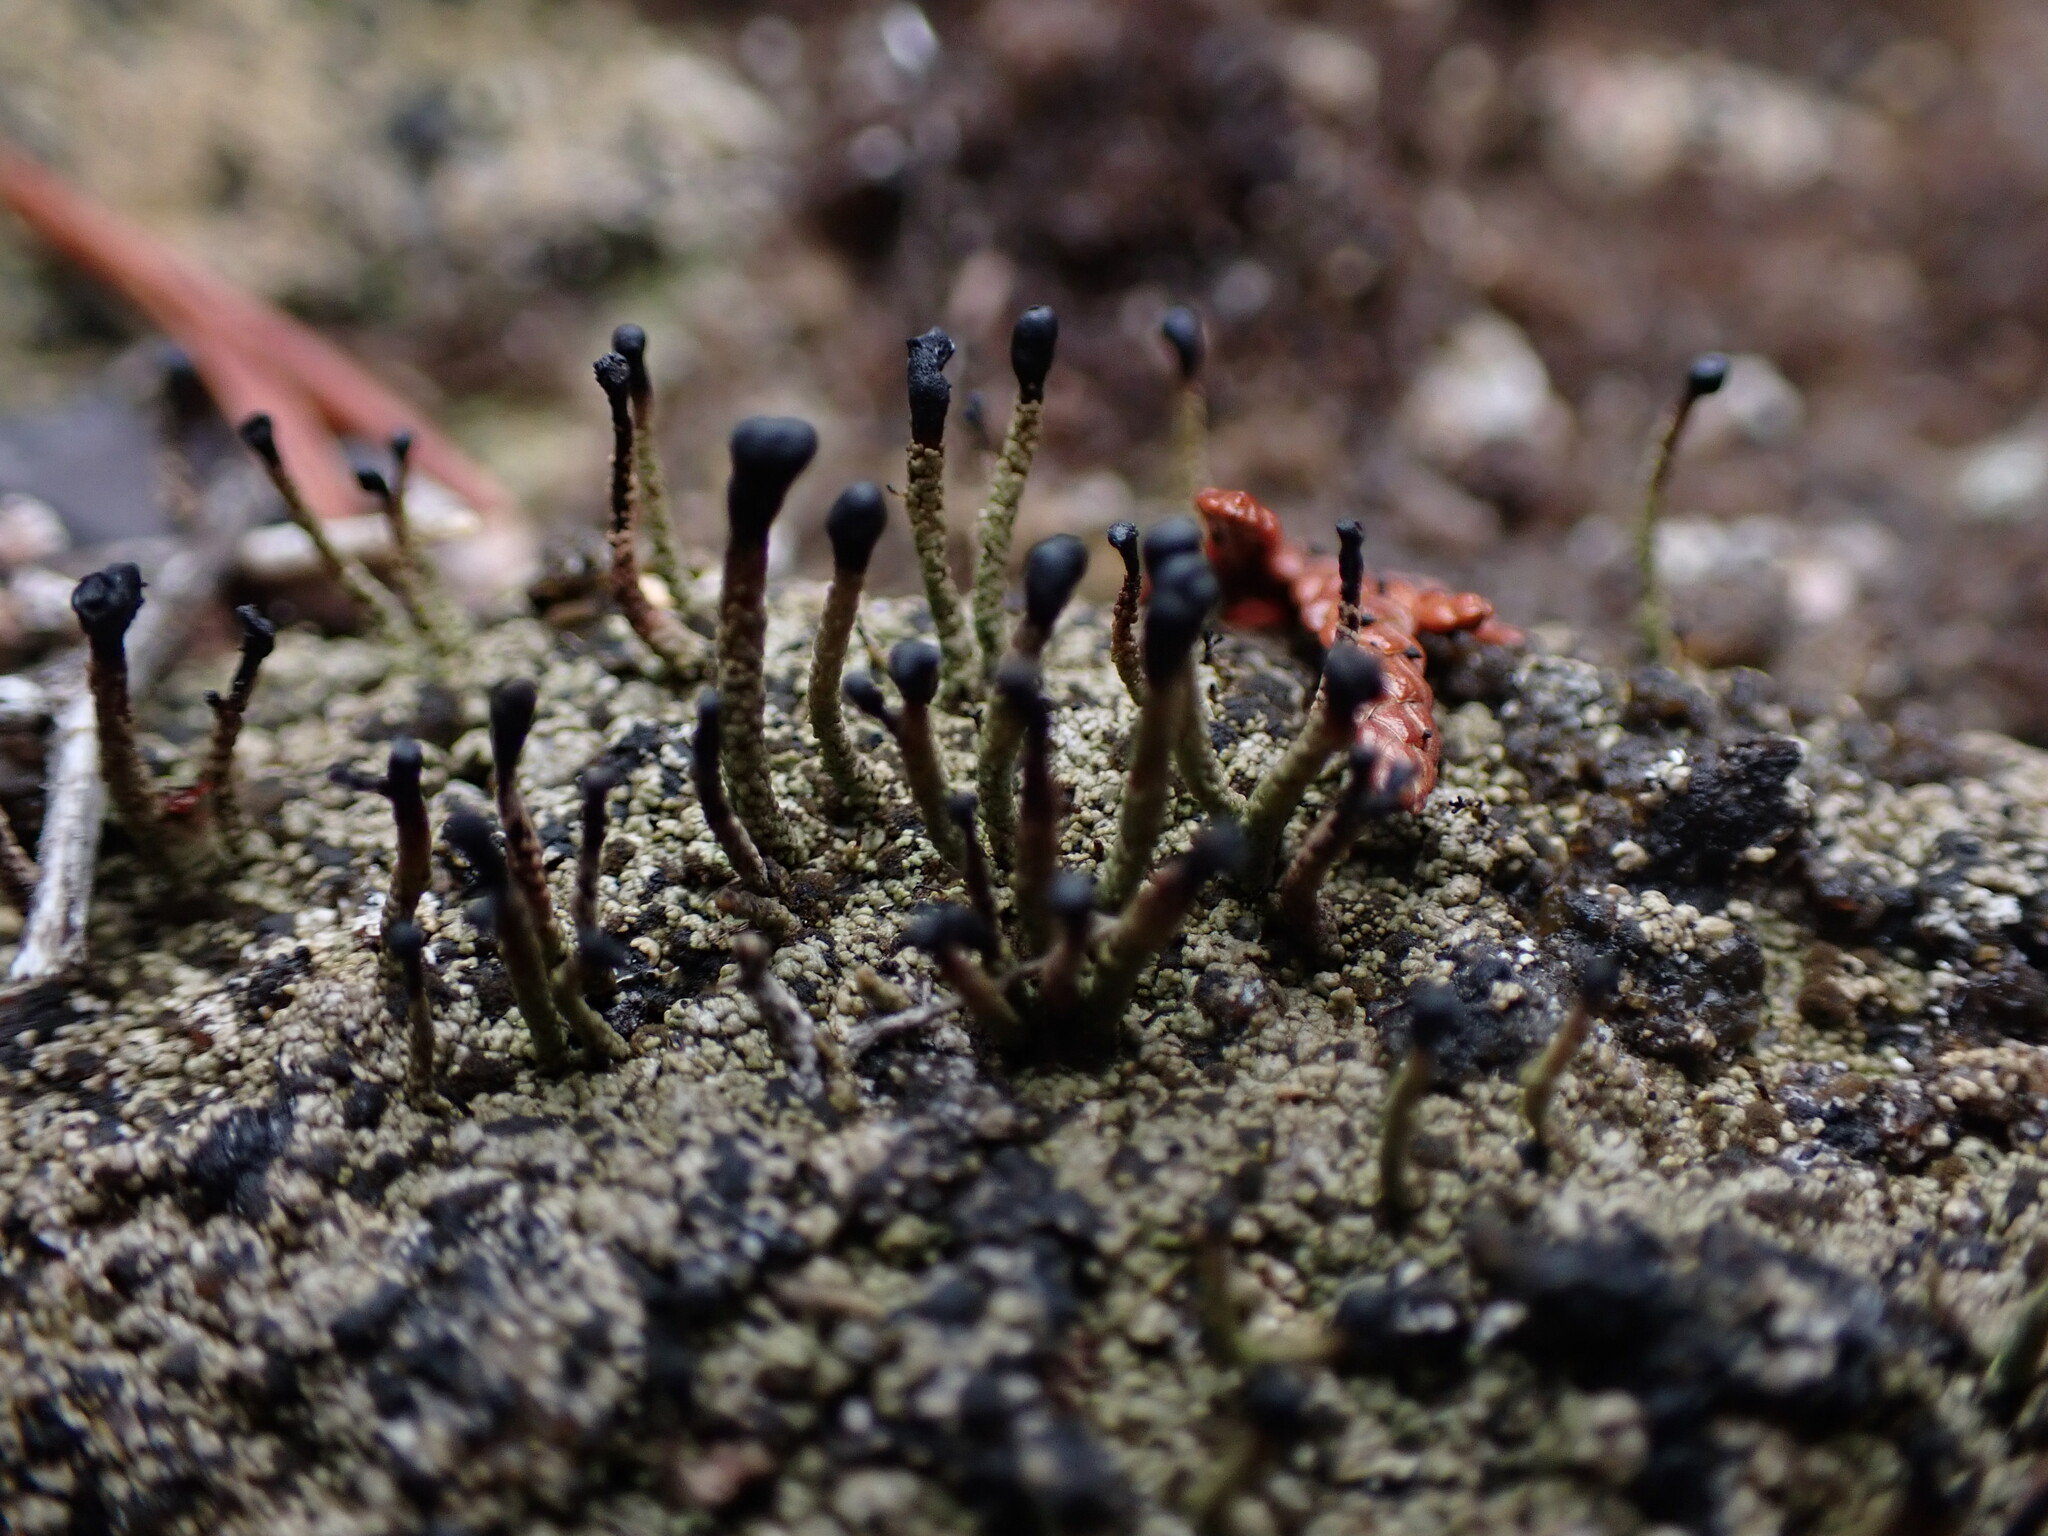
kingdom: Fungi
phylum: Ascomycota
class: Lecanoromycetes
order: Lecanorales
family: Cladoniaceae
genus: Pilophorus
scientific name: Pilophorus clavatus
